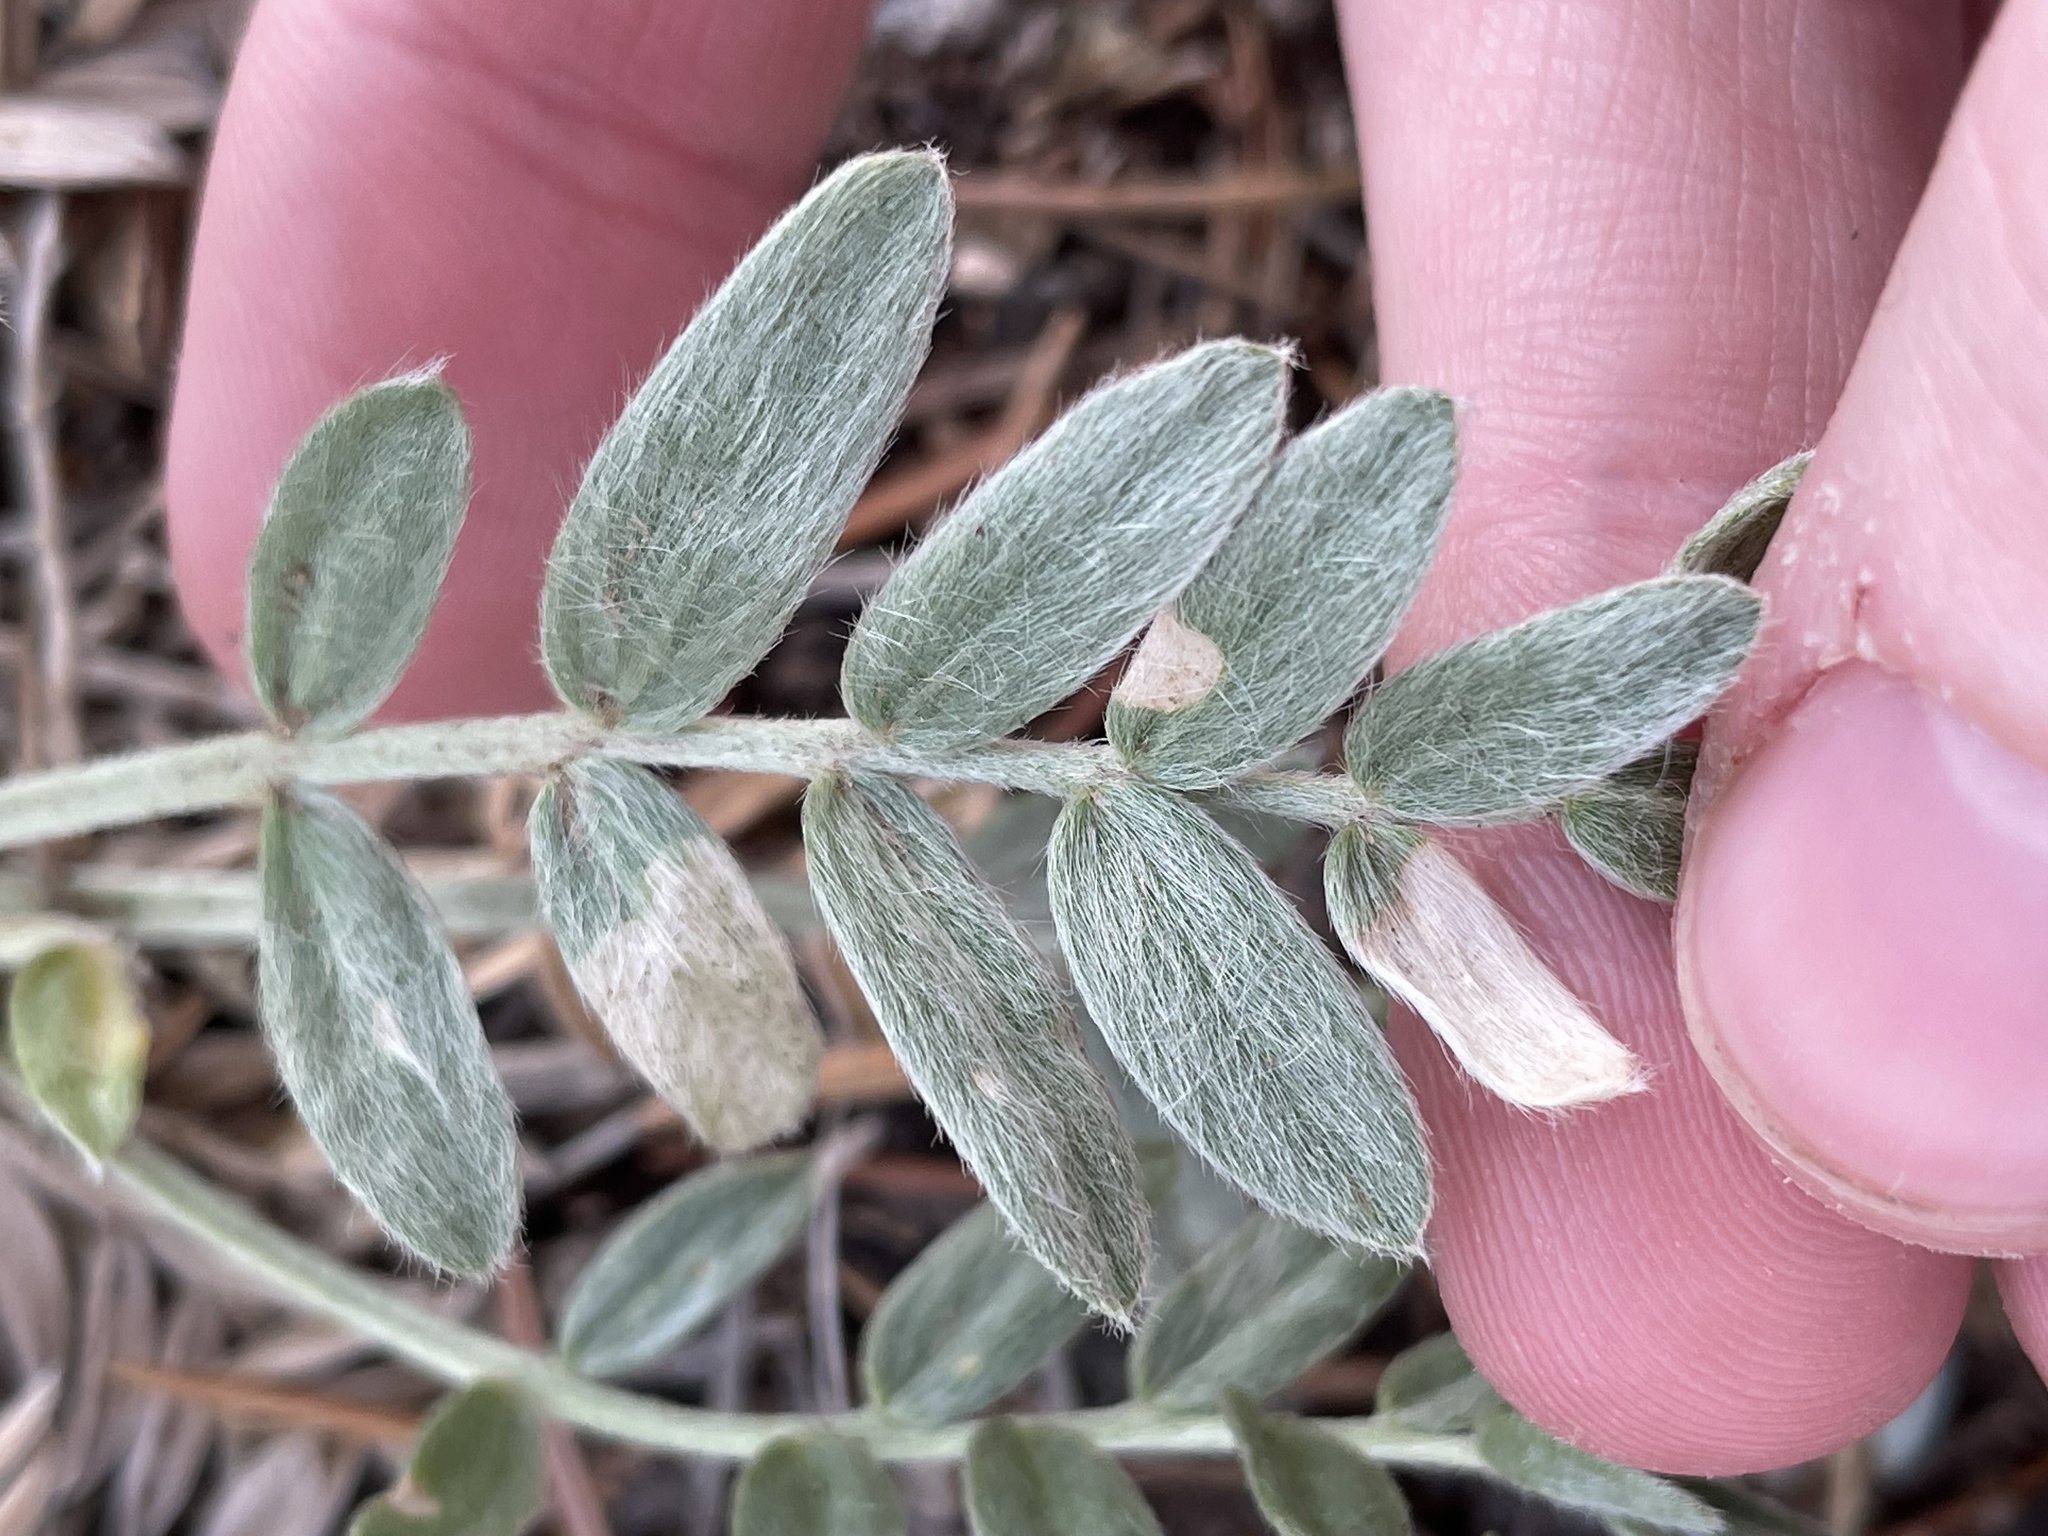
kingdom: Plantae
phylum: Tracheophyta
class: Magnoliopsida
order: Fabales
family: Fabaceae
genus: Oxytropis
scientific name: Oxytropis sericea
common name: Silky locoweed
